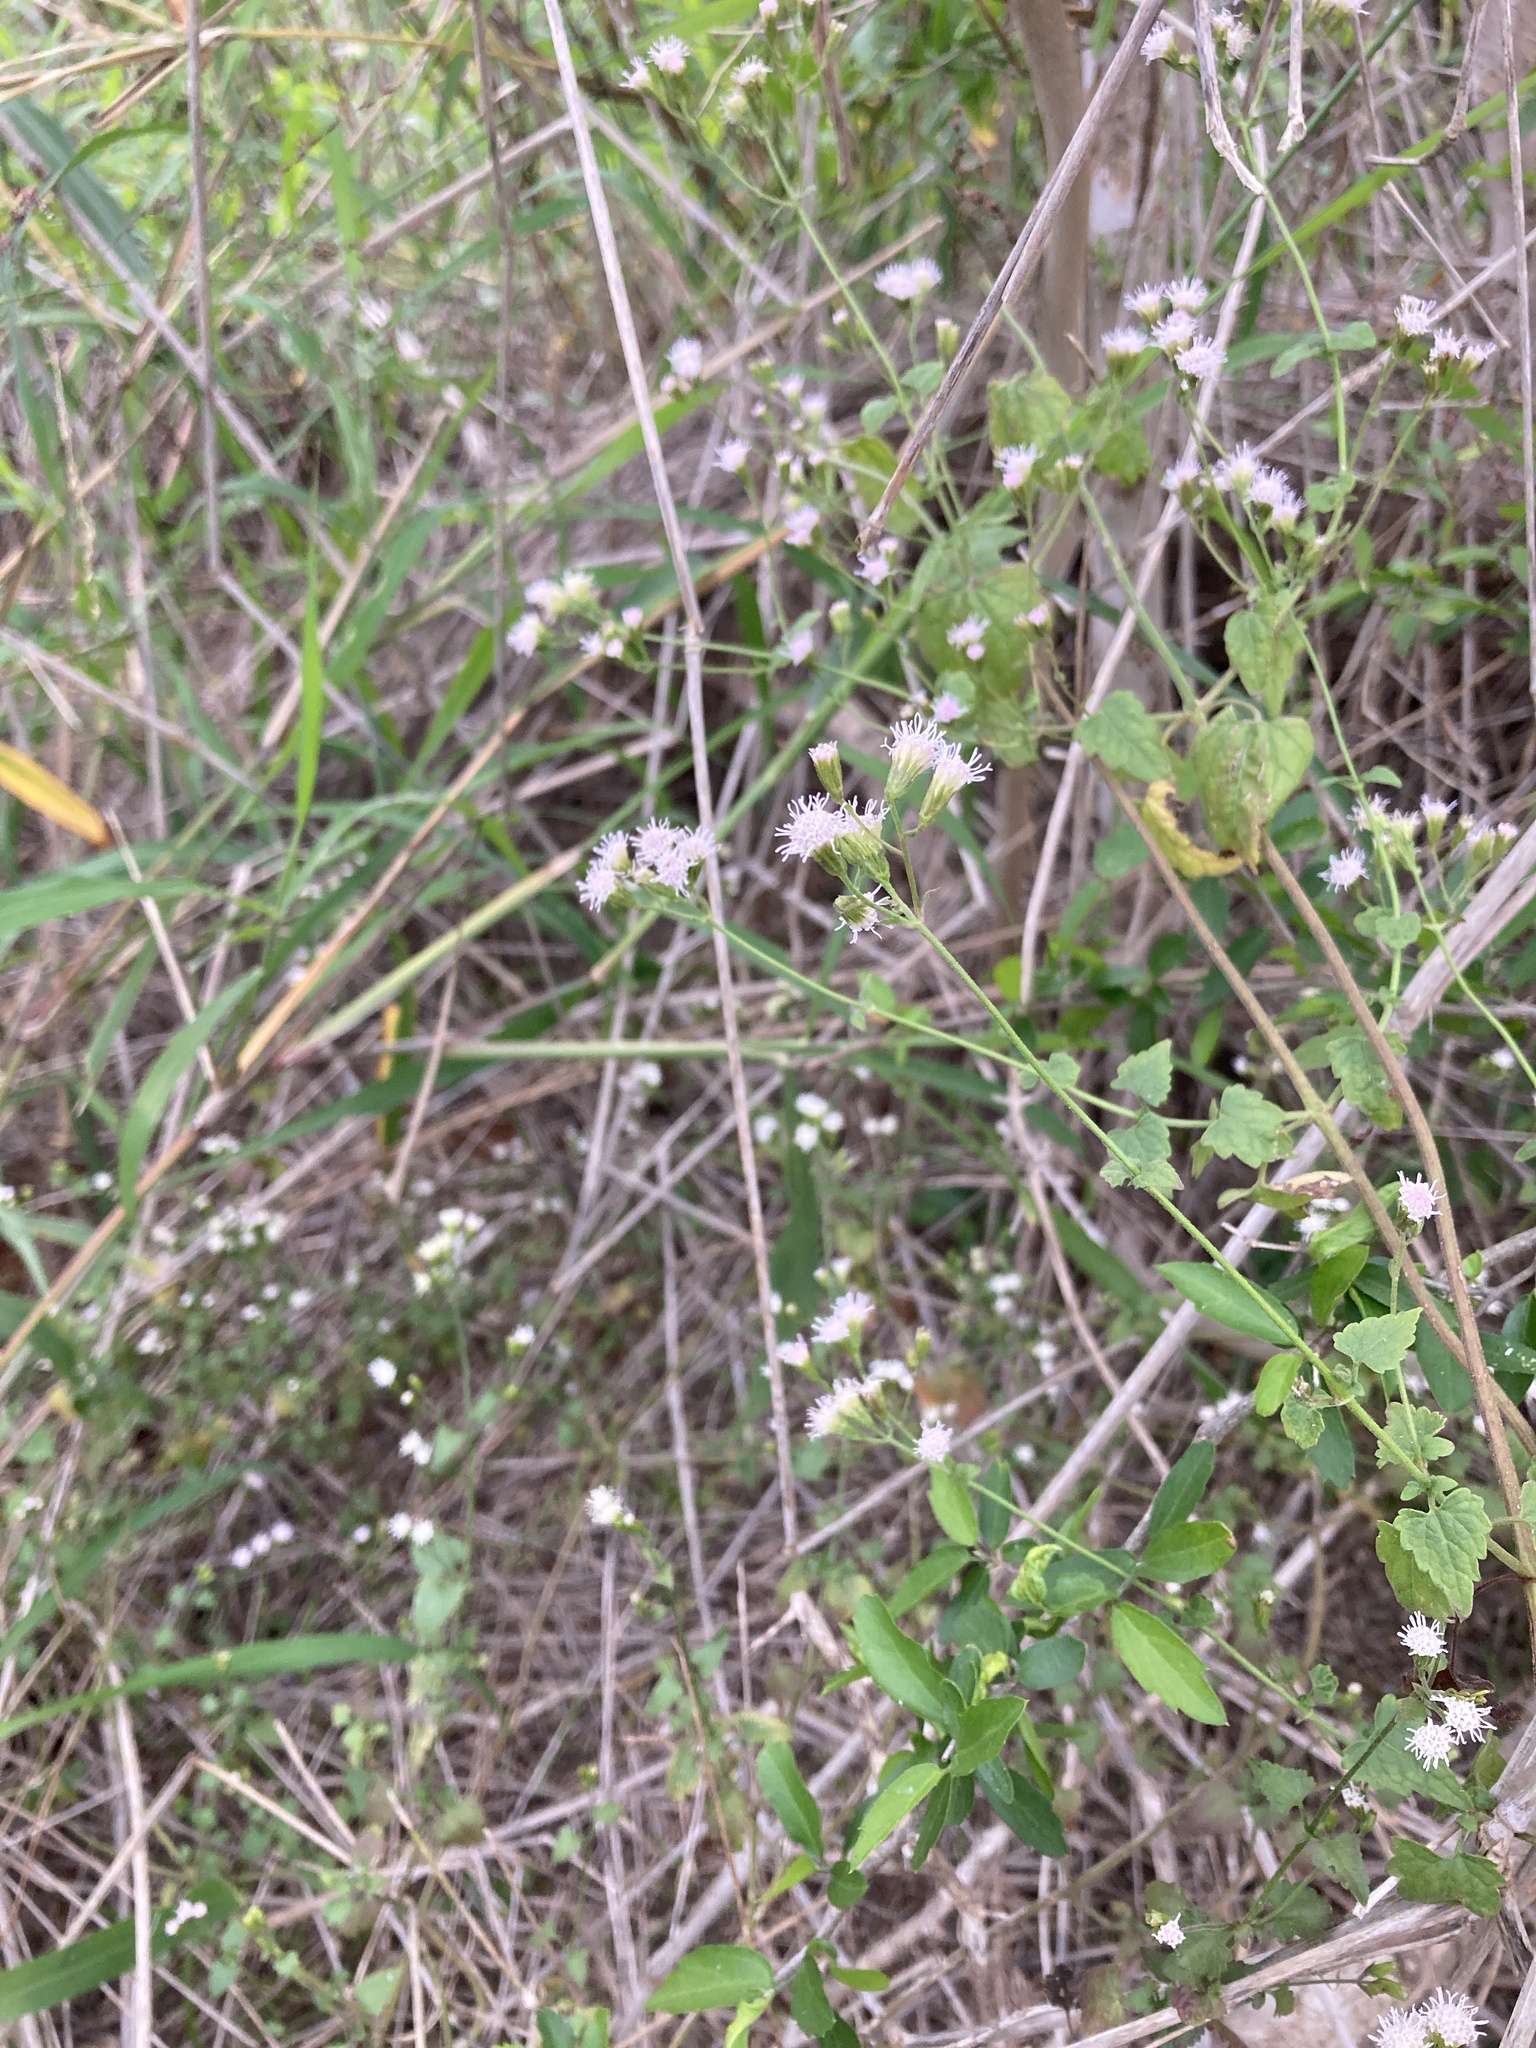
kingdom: Plantae
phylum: Tracheophyta
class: Magnoliopsida
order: Asterales
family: Asteraceae
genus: Fleischmannia
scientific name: Fleischmannia incarnata
